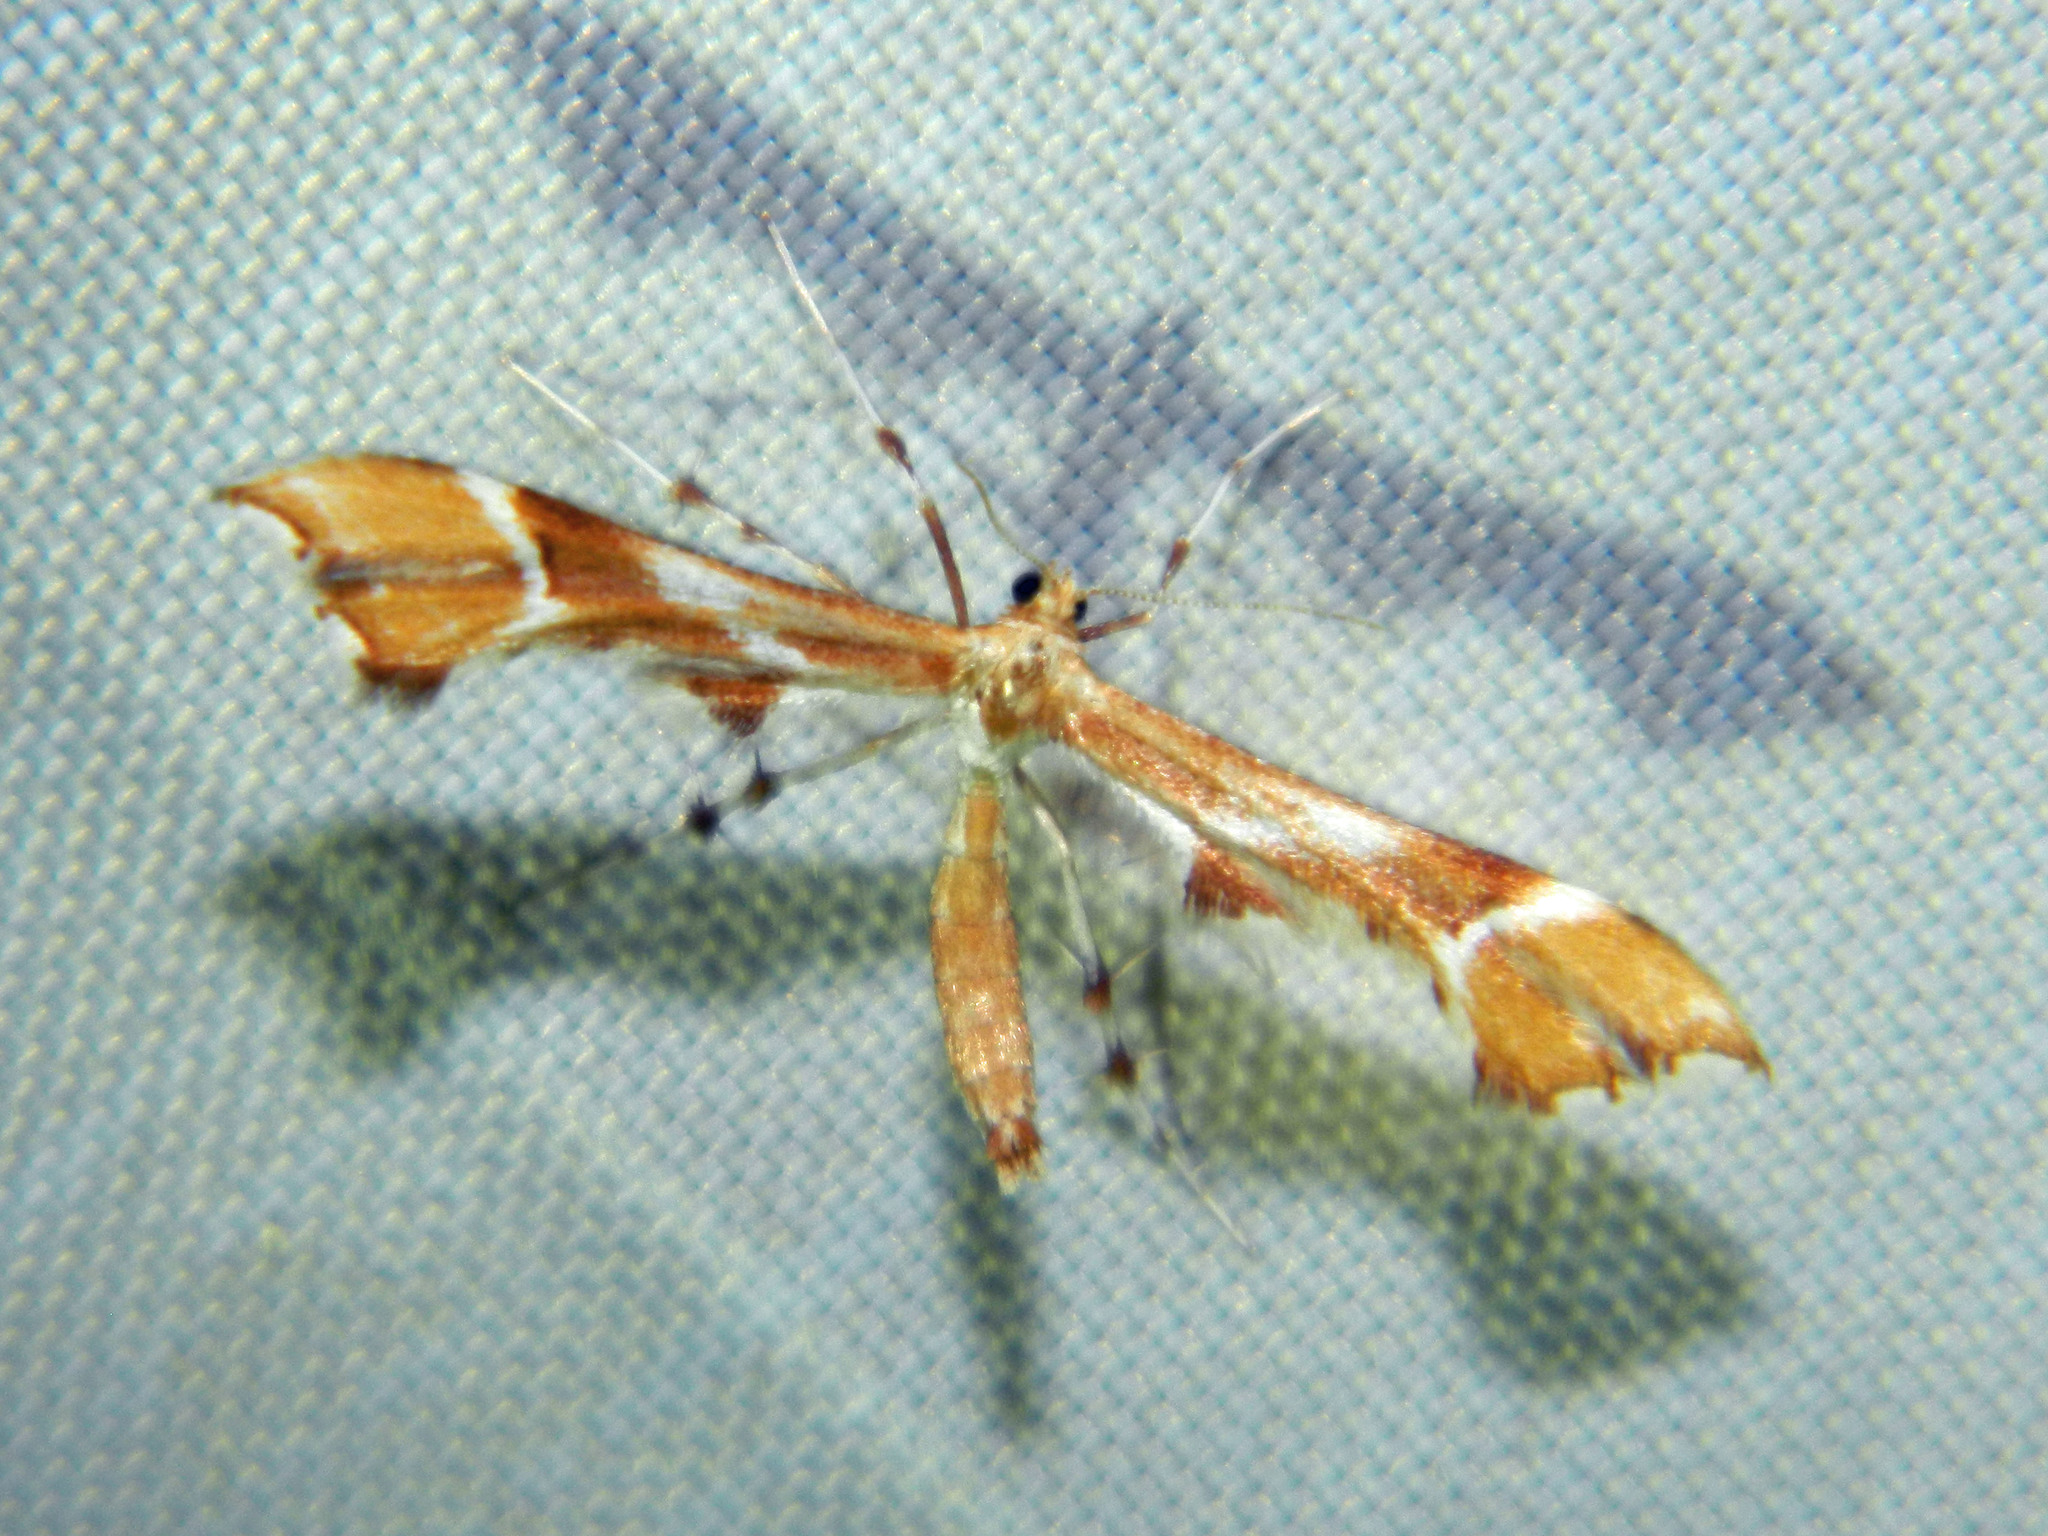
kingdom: Animalia
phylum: Arthropoda
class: Insecta
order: Lepidoptera
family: Pterophoridae
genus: Cnaemidophorus
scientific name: Cnaemidophorus rhododactyla
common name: Rose plume
